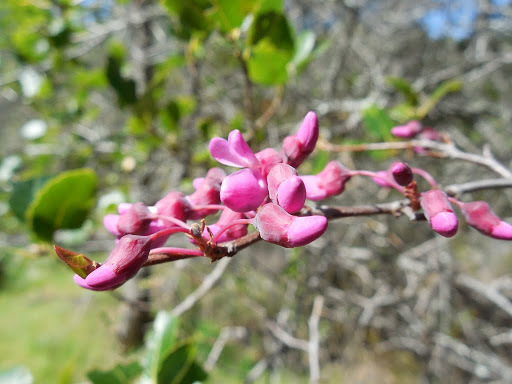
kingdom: Plantae
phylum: Tracheophyta
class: Magnoliopsida
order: Fabales
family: Fabaceae
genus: Cercis
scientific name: Cercis occidentalis
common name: California redbud
